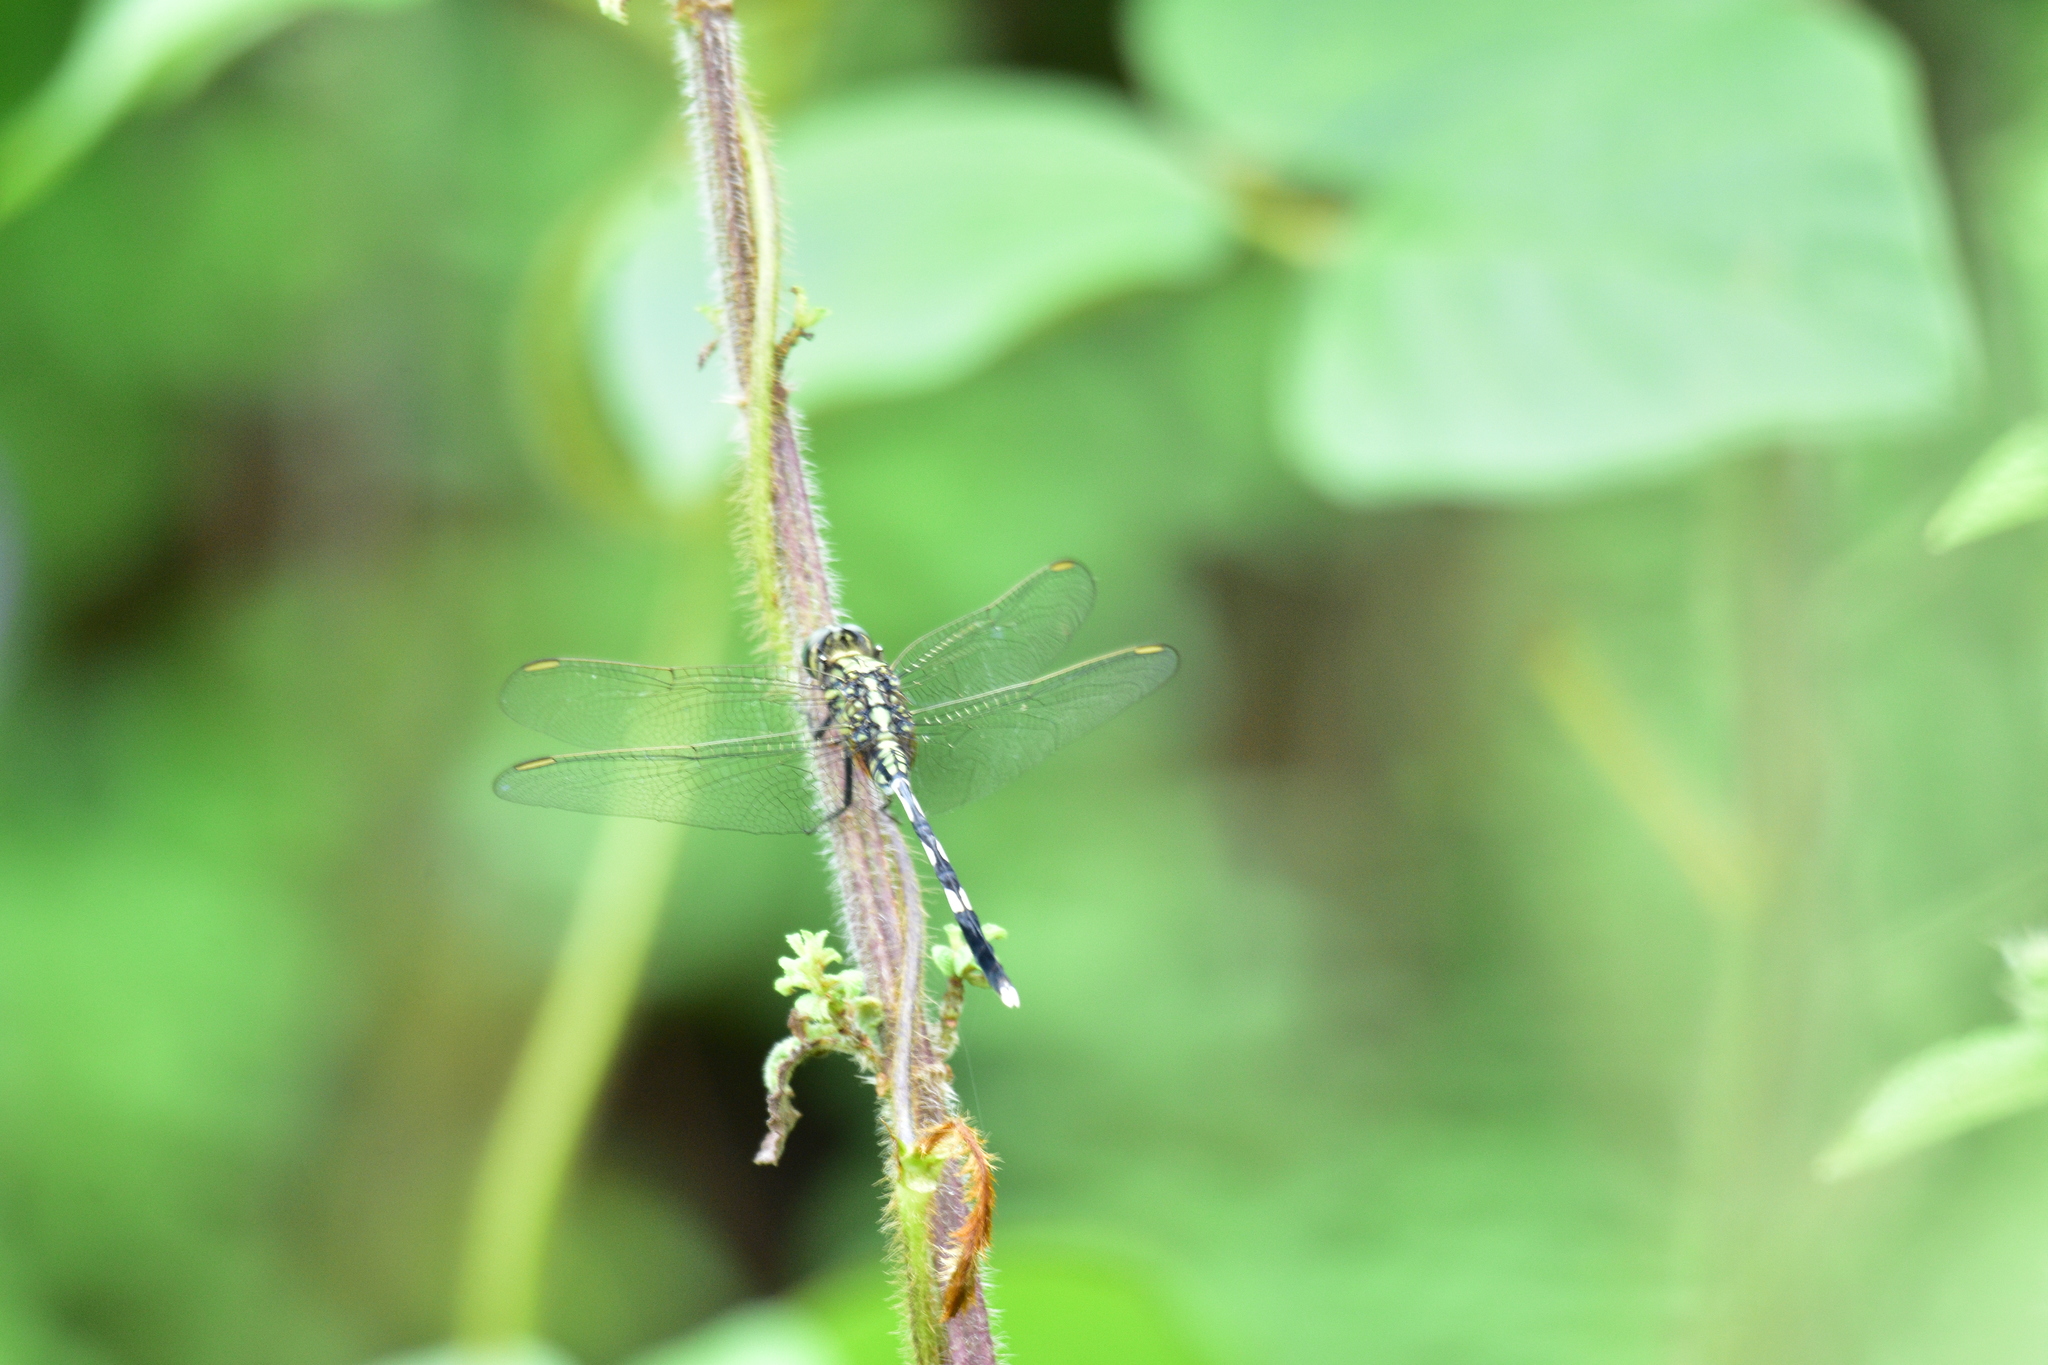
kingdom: Animalia
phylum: Arthropoda
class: Insecta
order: Odonata
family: Libellulidae
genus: Orthetrum
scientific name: Orthetrum sabina
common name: Slender skimmer
